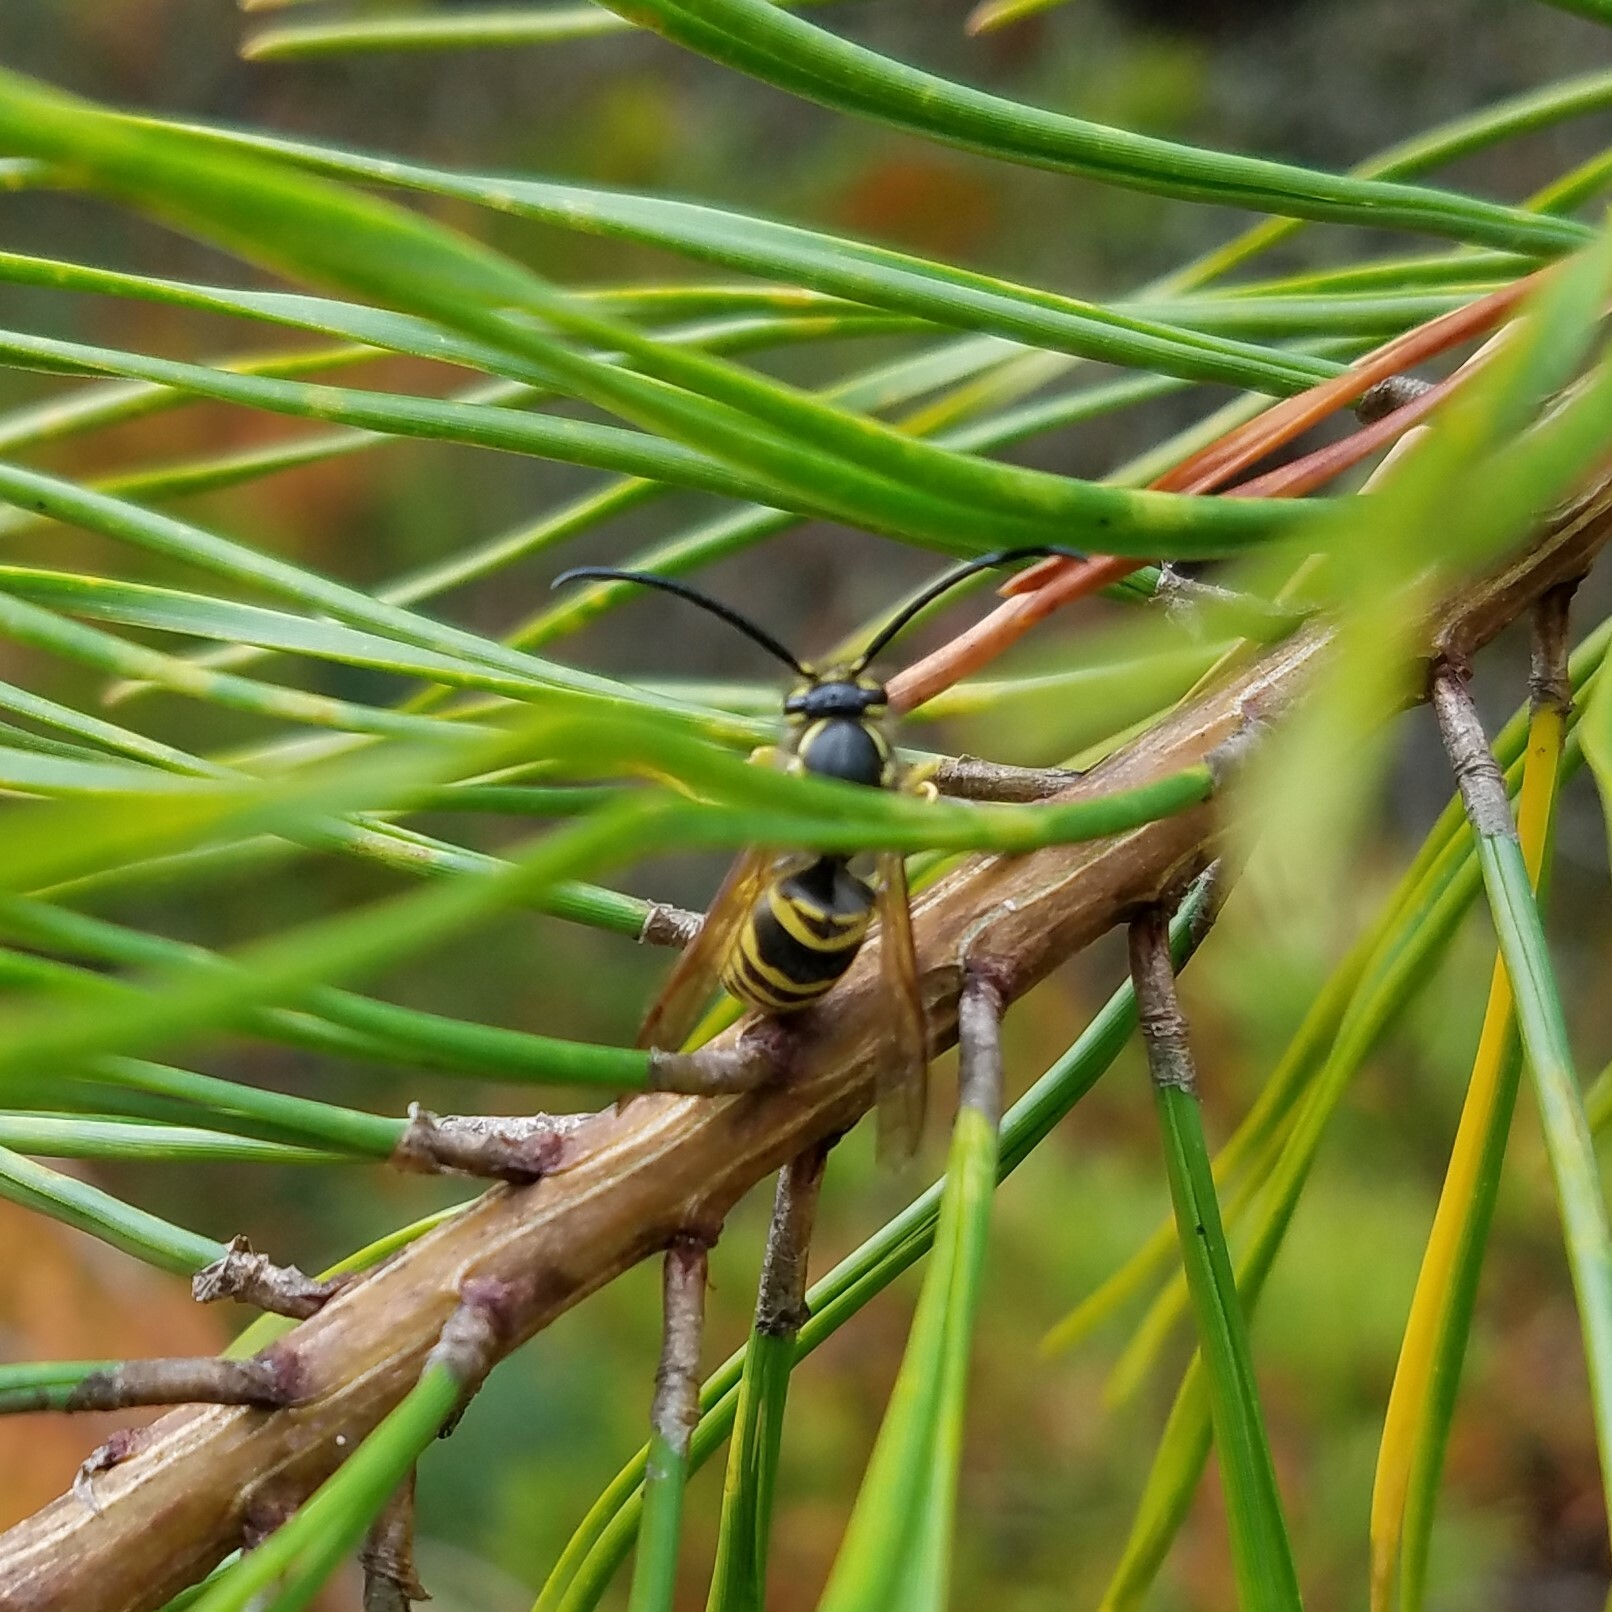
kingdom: Animalia
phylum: Arthropoda
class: Insecta
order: Hymenoptera
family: Vespidae
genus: Vespula
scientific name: Vespula maculifrons
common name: Eastern yellowjacket
